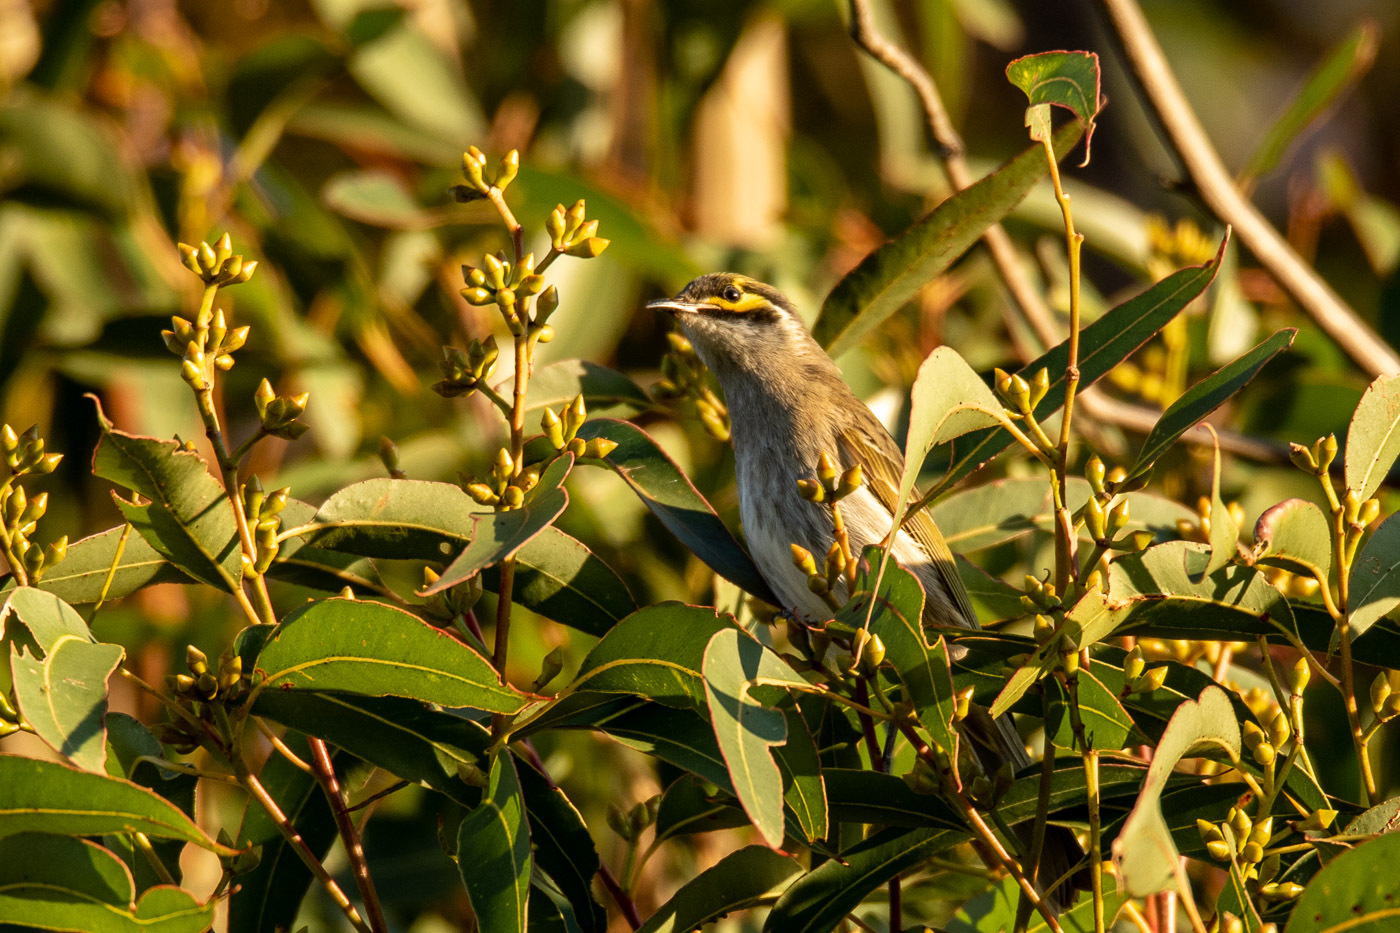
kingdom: Animalia
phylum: Chordata
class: Aves
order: Passeriformes
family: Meliphagidae
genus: Caligavis
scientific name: Caligavis chrysops
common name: Yellow-faced honeyeater
